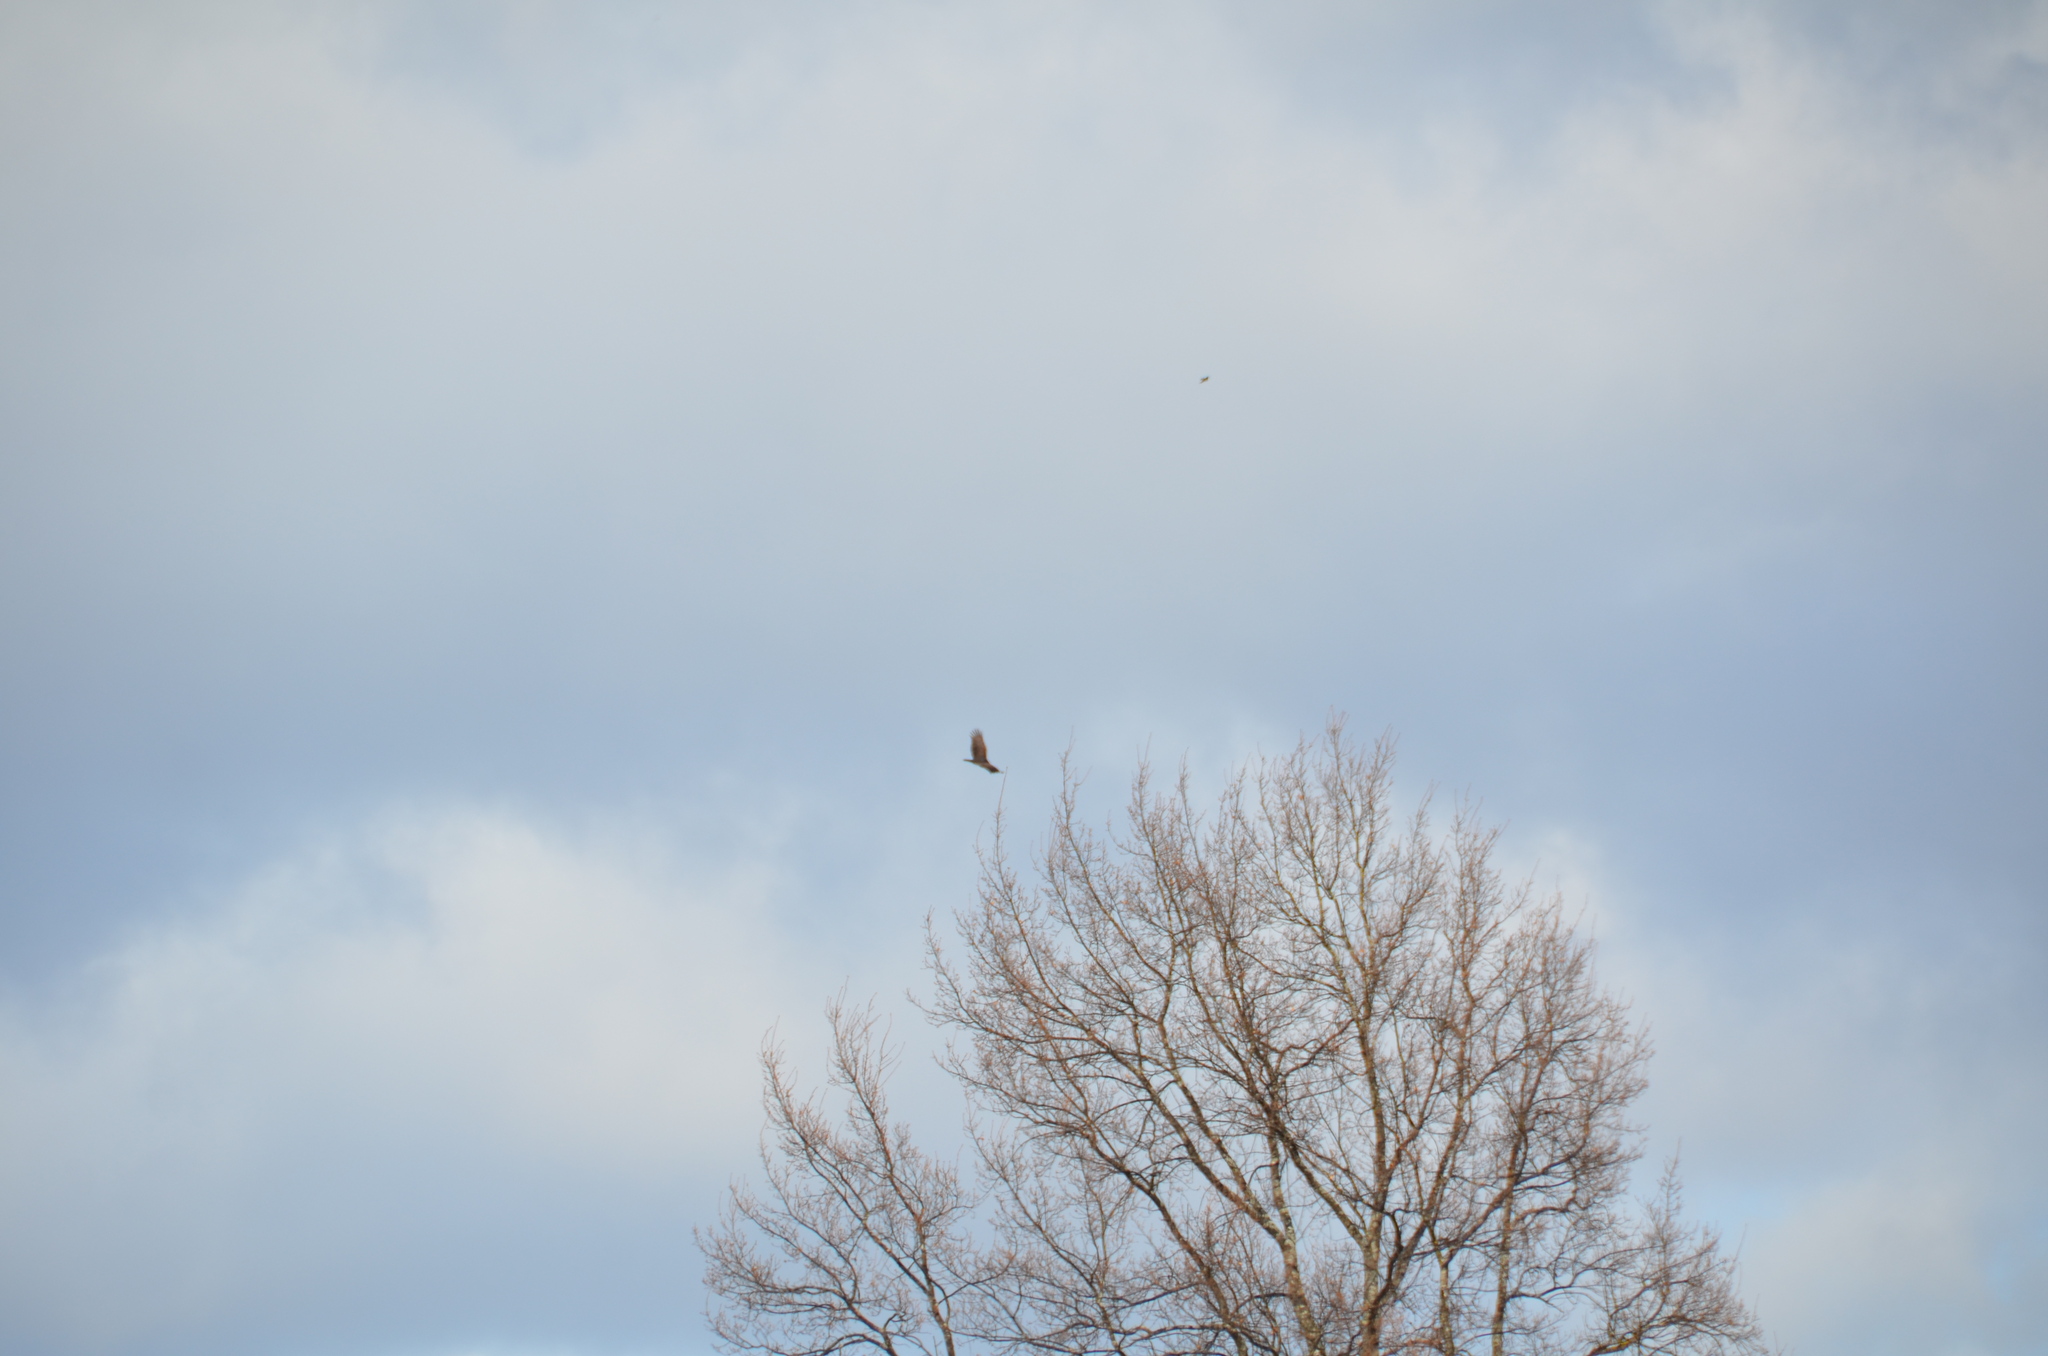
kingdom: Animalia
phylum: Chordata
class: Aves
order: Accipitriformes
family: Cathartidae
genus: Cathartes
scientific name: Cathartes aura
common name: Turkey vulture
